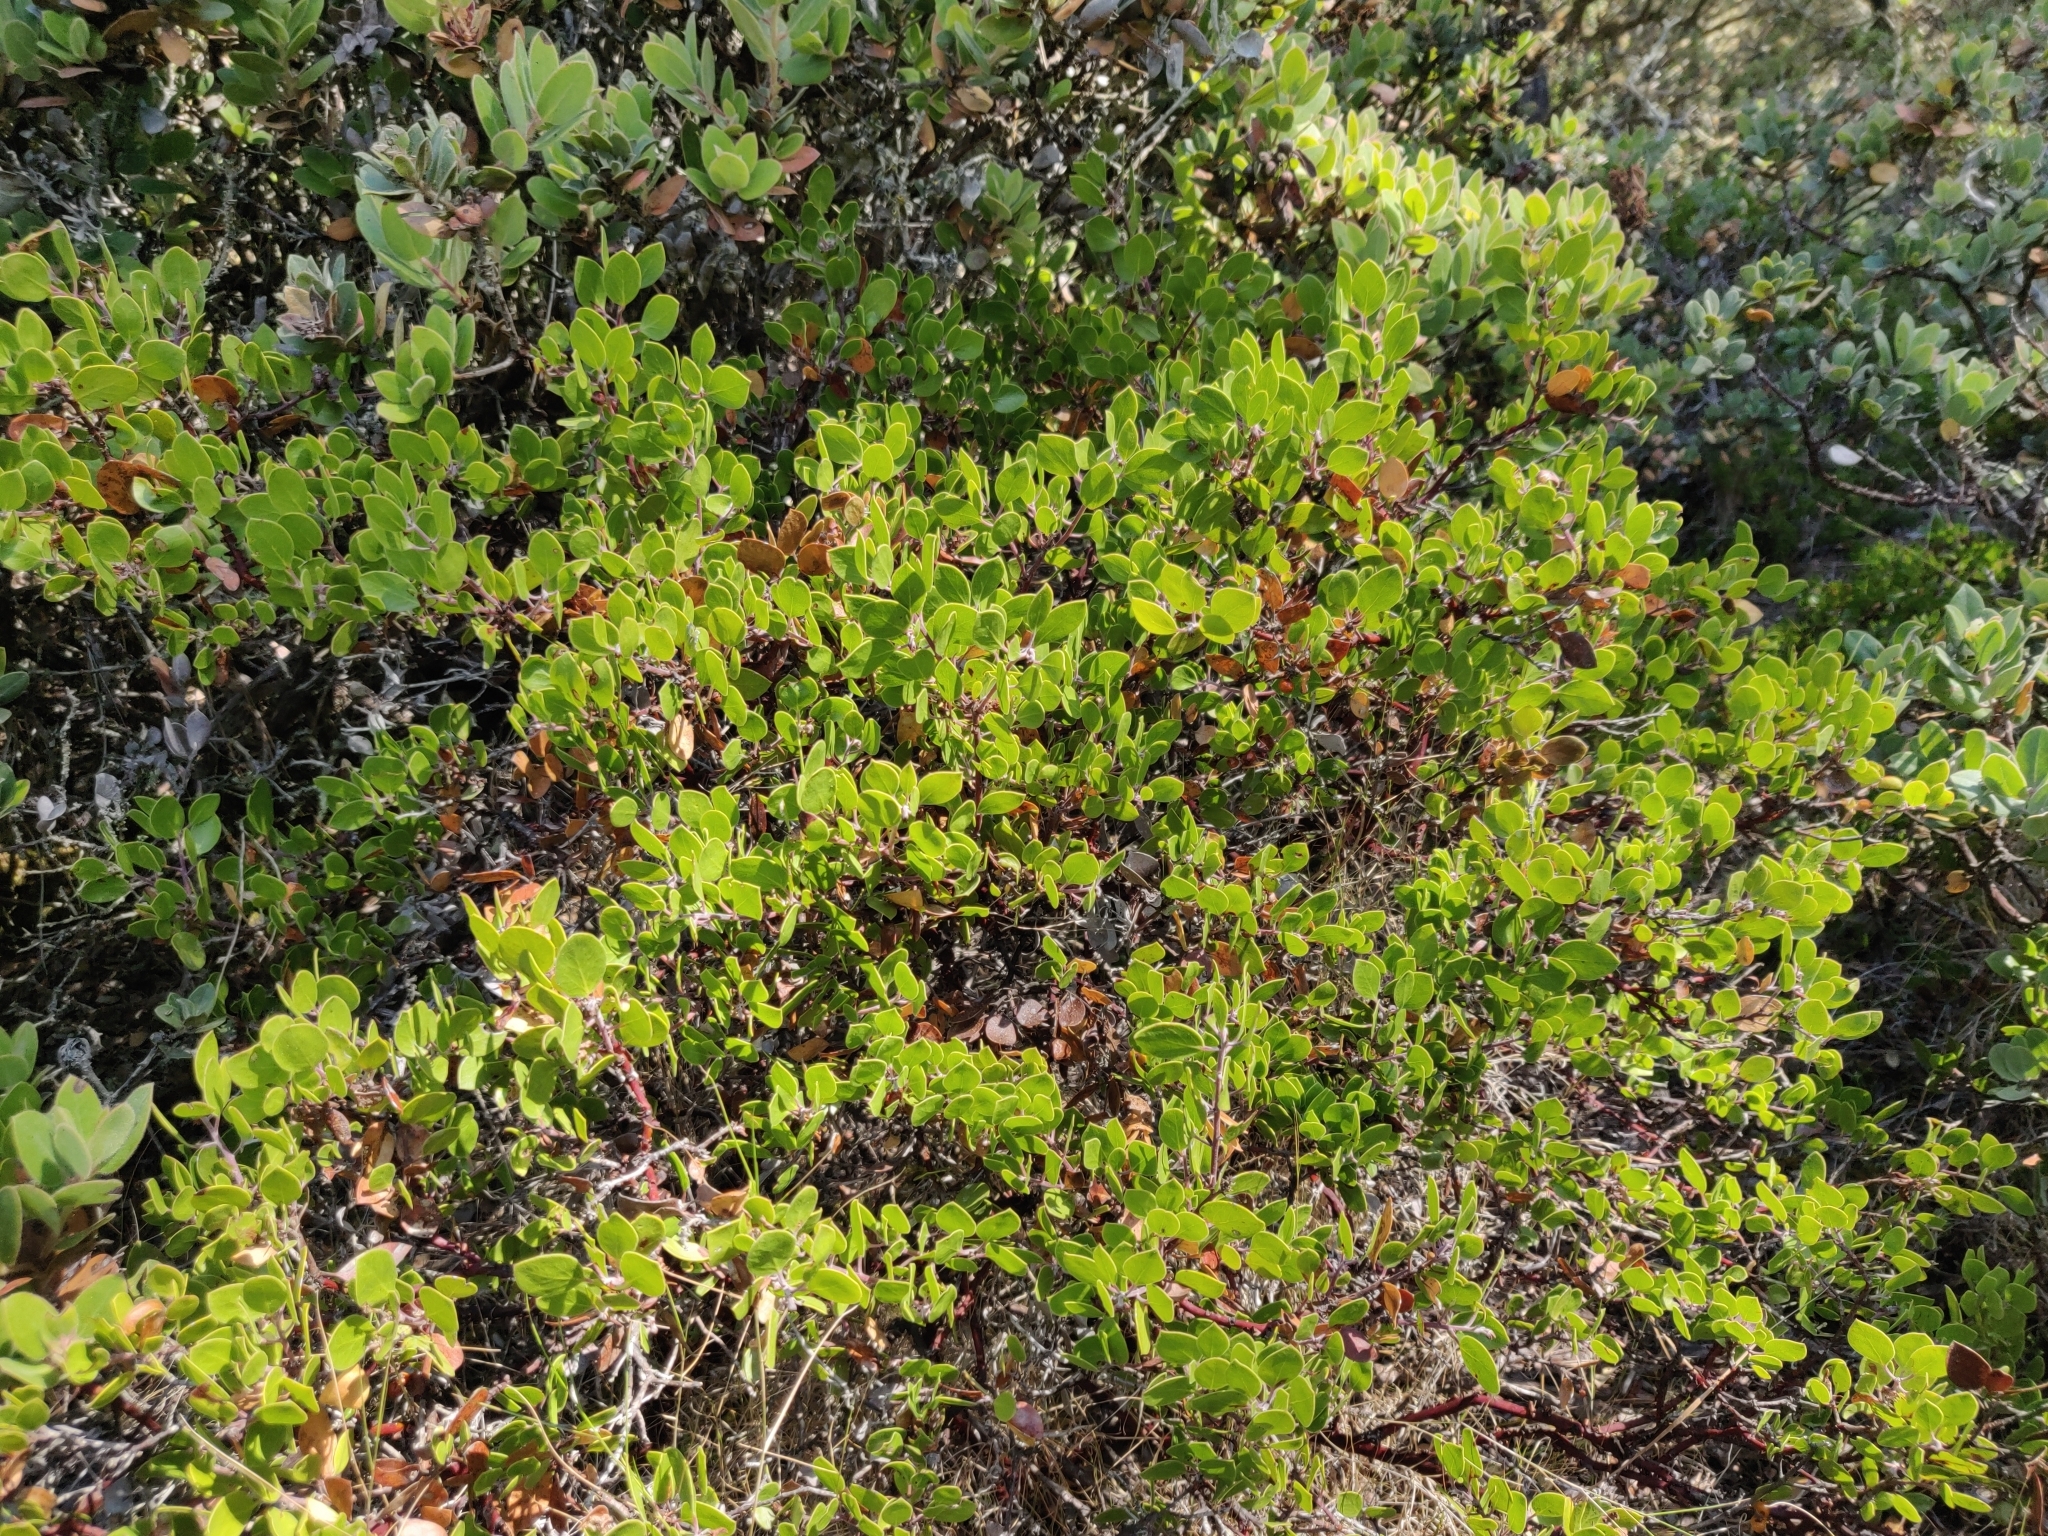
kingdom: Plantae
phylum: Tracheophyta
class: Magnoliopsida
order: Ericales
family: Ericaceae
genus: Arctostaphylos
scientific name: Arctostaphylos hookeri
